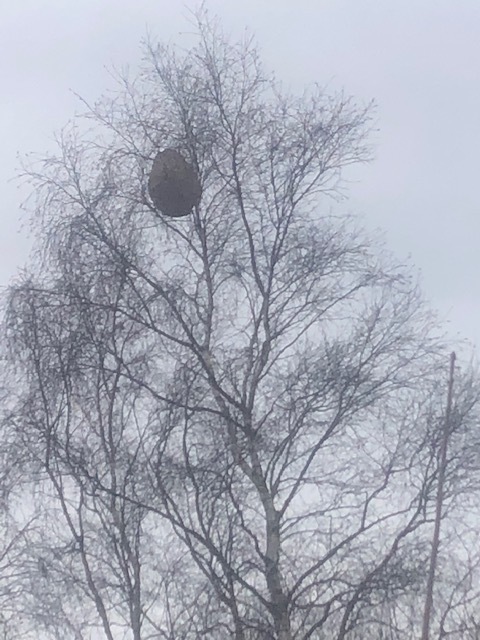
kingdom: Animalia
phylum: Arthropoda
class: Insecta
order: Hymenoptera
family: Vespidae
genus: Vespa
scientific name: Vespa velutina
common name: Asian hornet
